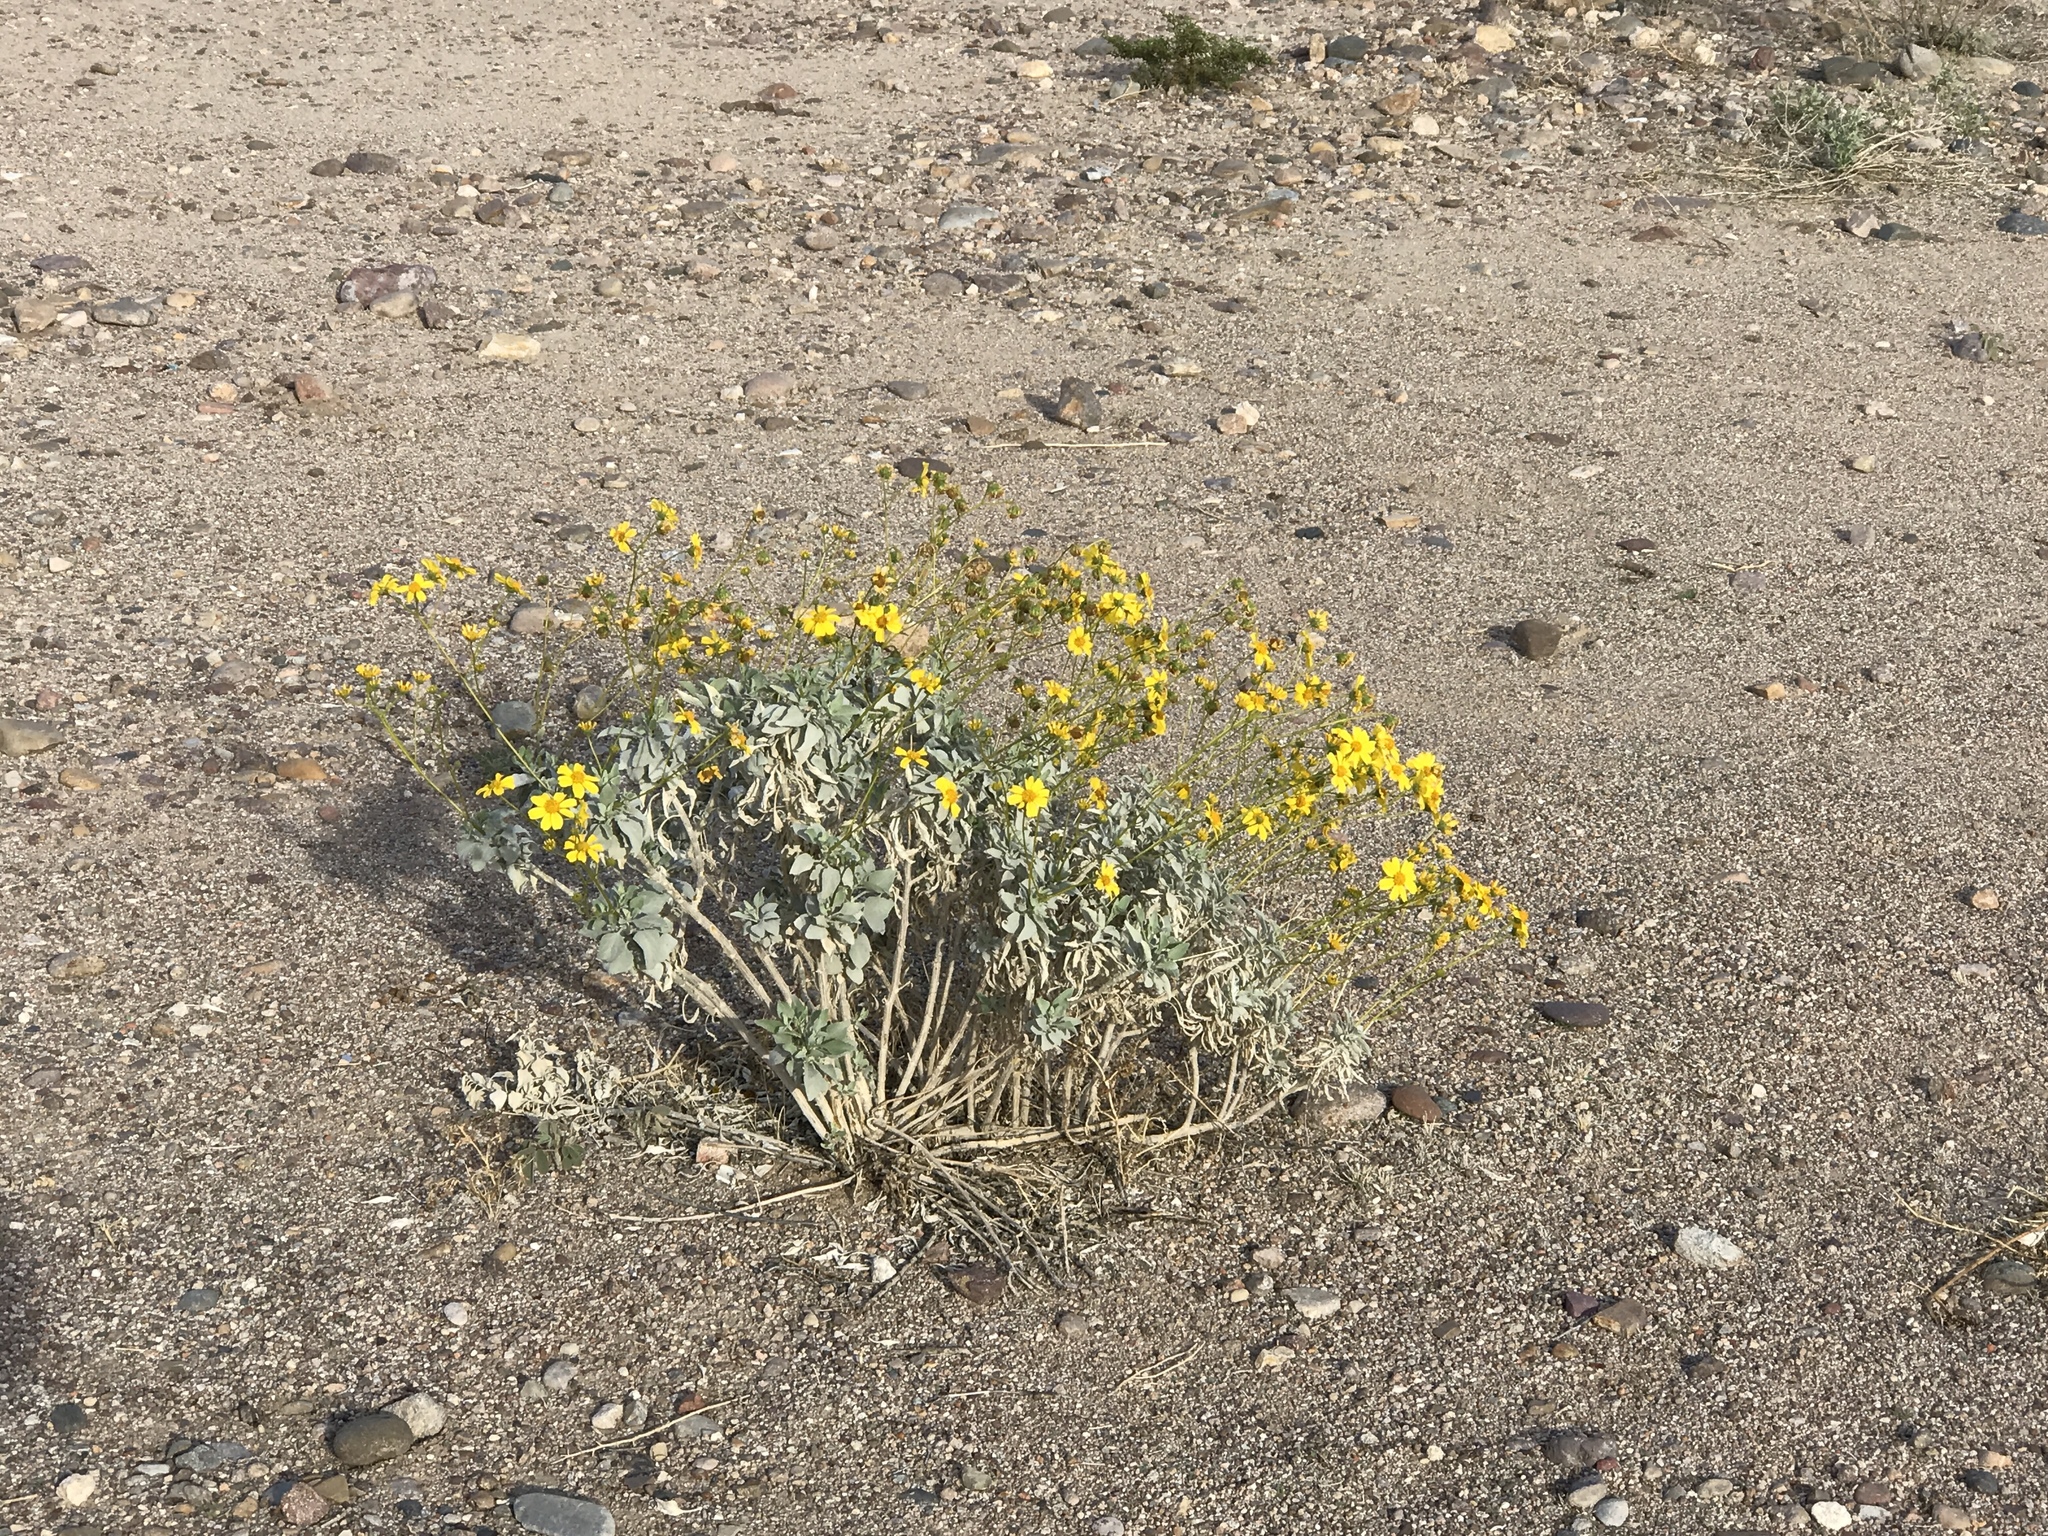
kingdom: Plantae
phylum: Tracheophyta
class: Magnoliopsida
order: Asterales
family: Asteraceae
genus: Encelia
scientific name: Encelia farinosa
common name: Brittlebush
